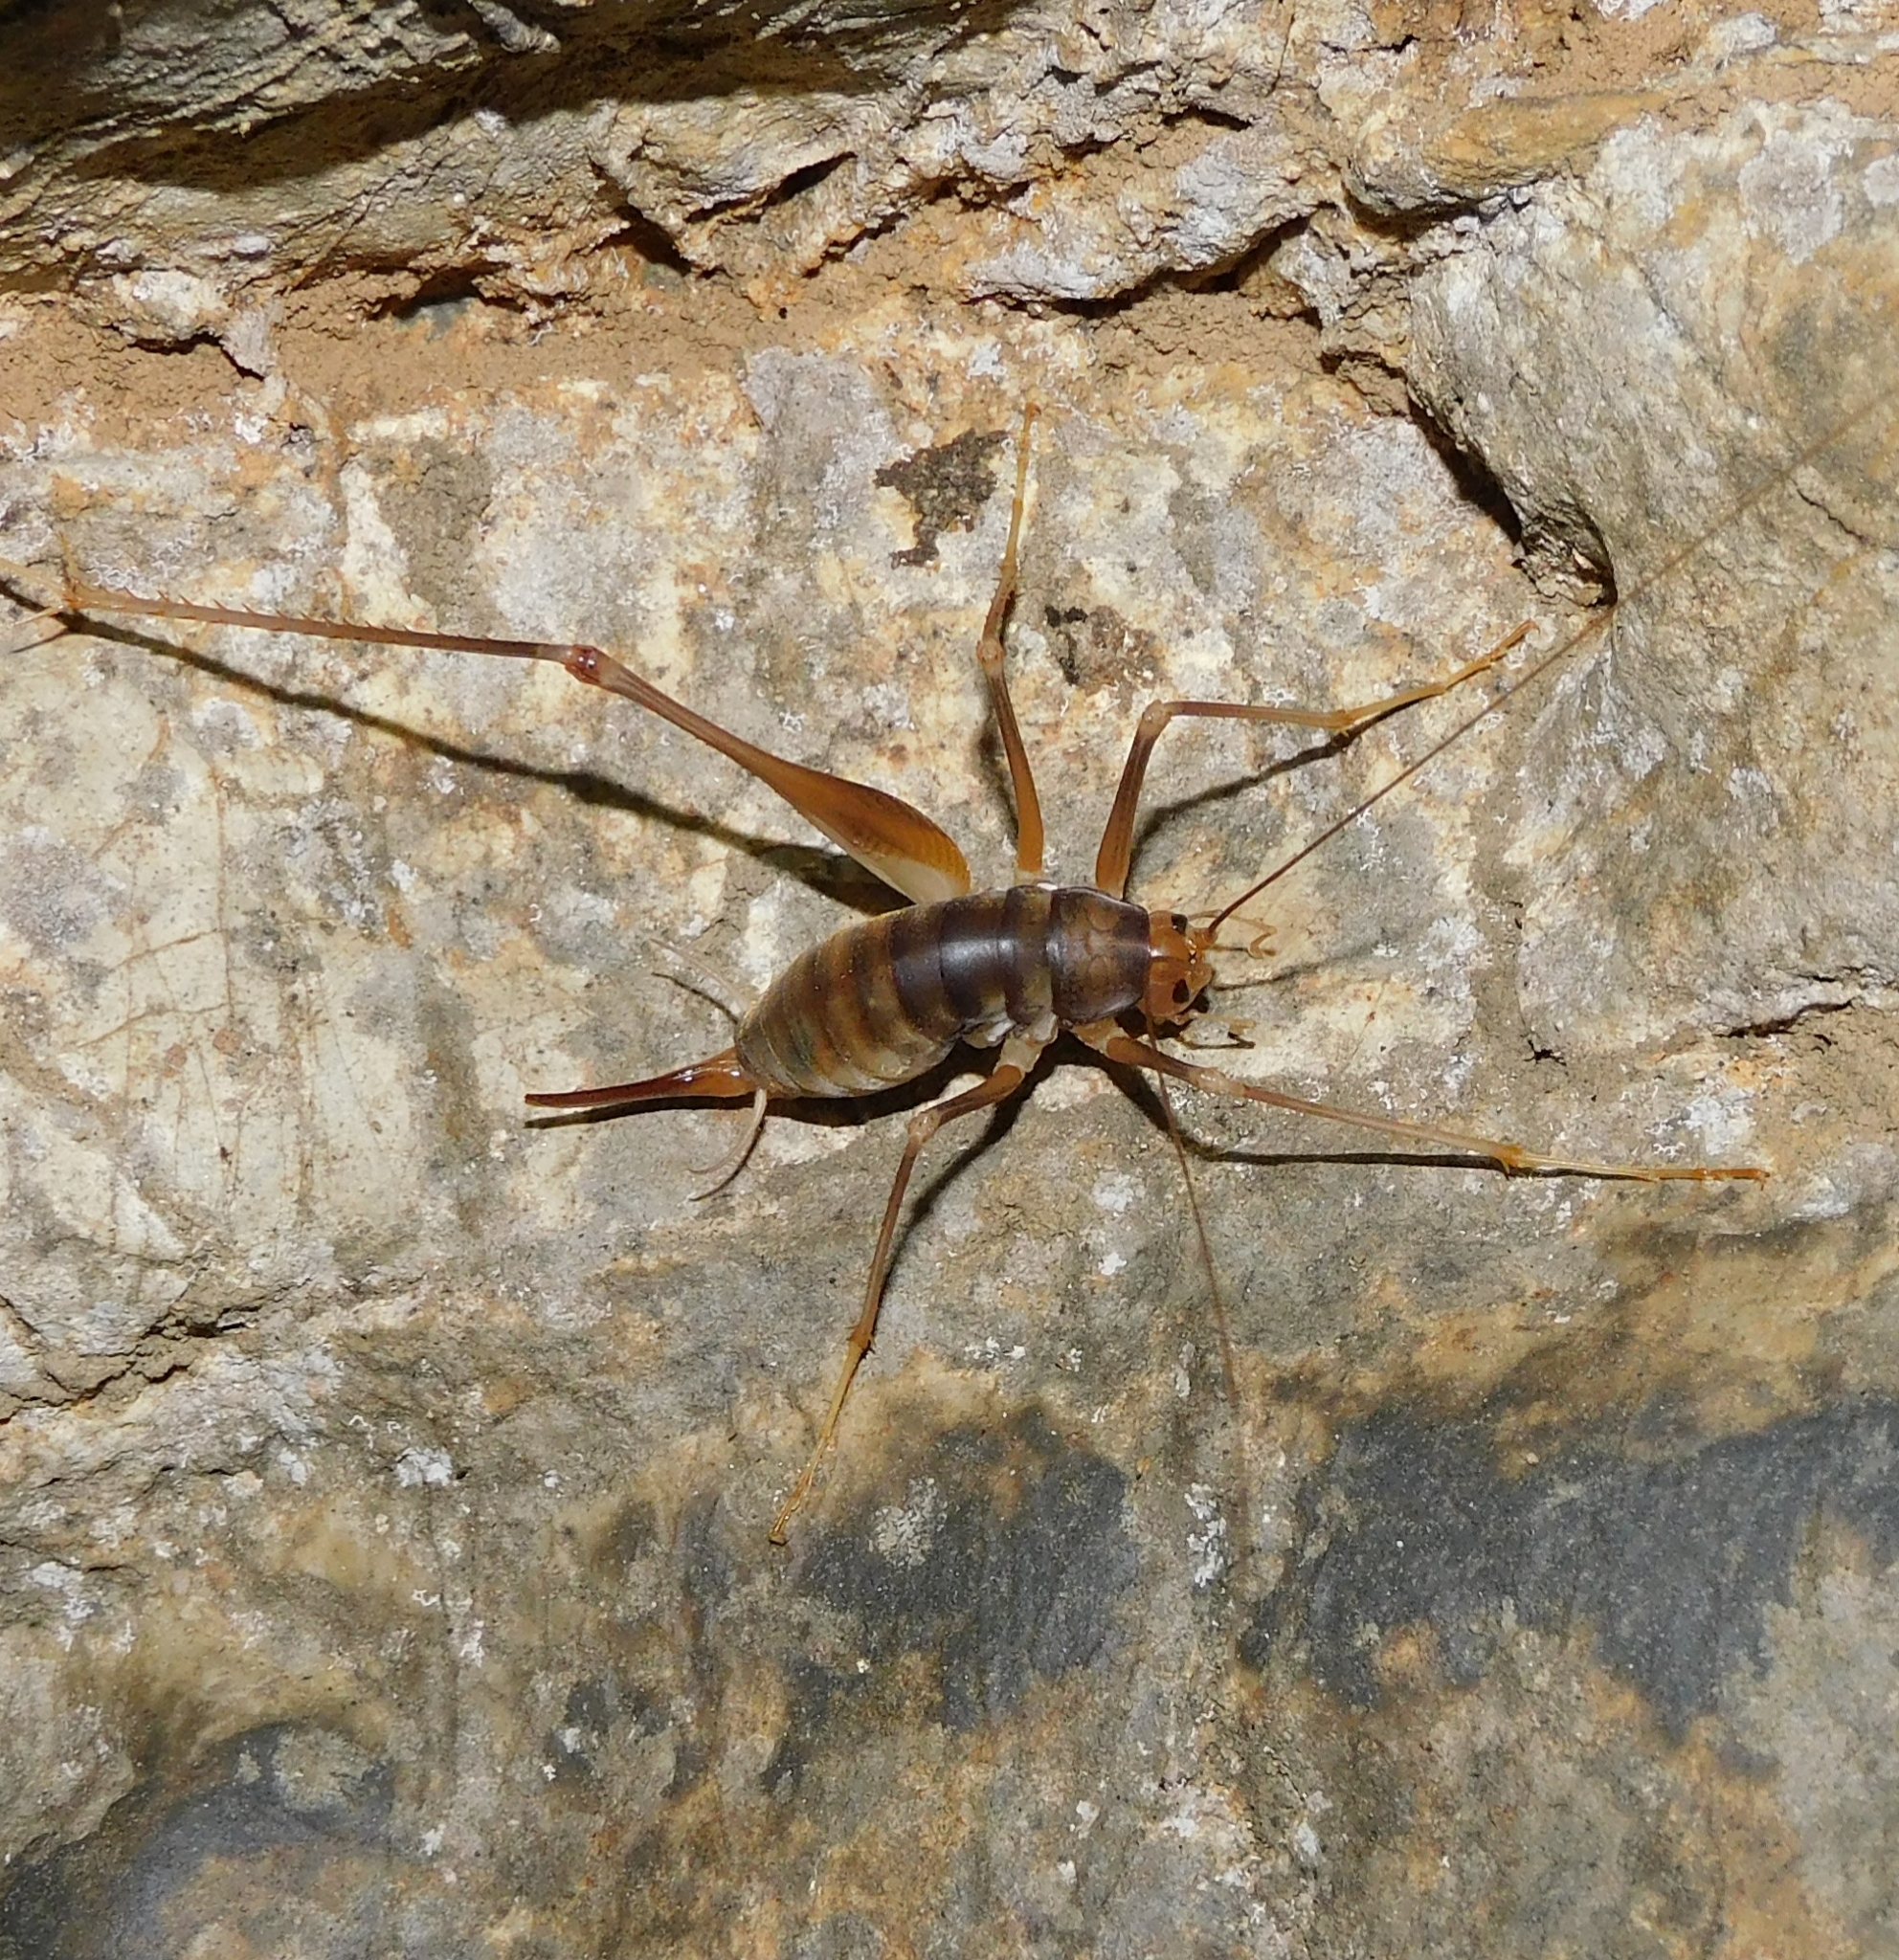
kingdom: Animalia
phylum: Arthropoda
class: Insecta
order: Orthoptera
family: Rhaphidophoridae
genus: Dolichopoda
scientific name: Dolichopoda schiavazzii
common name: Livorno cave-cricket
